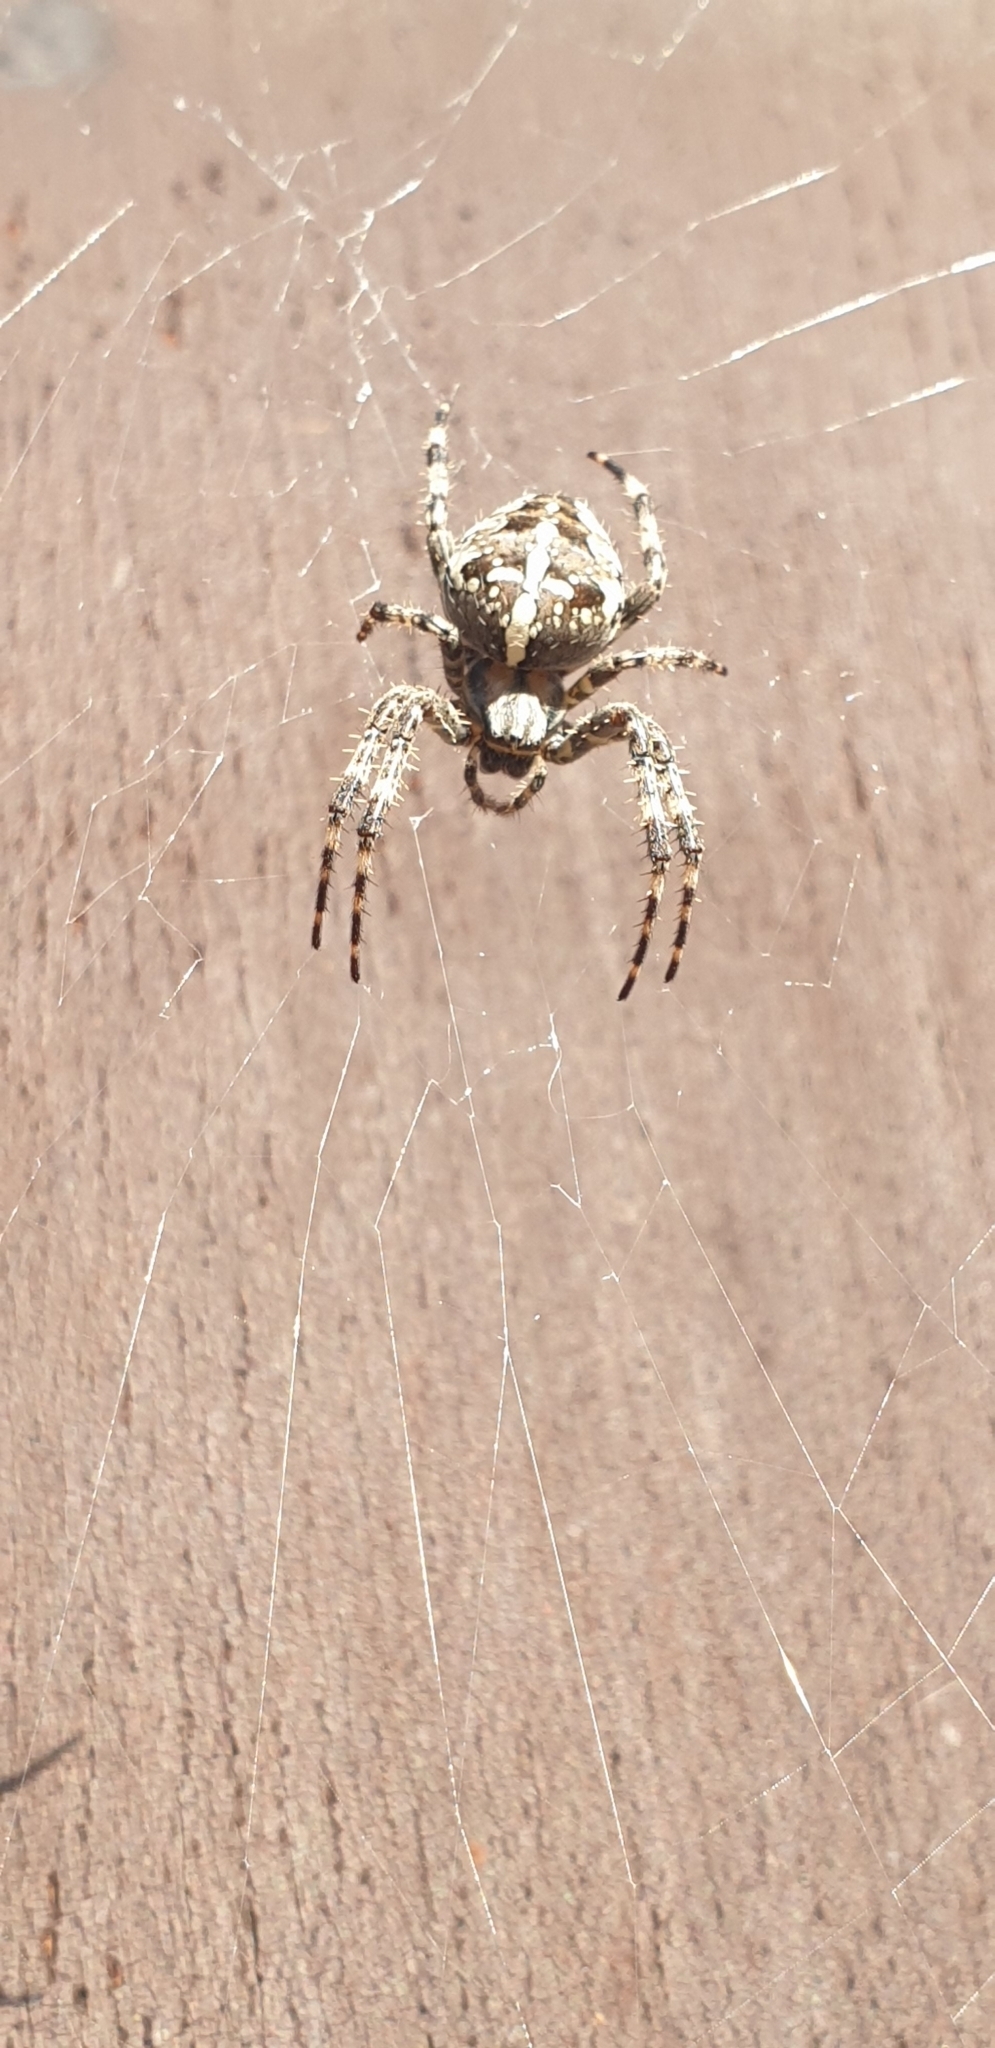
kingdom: Animalia
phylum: Arthropoda
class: Arachnida
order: Araneae
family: Araneidae
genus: Araneus
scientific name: Araneus diadematus
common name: Cross orbweaver
